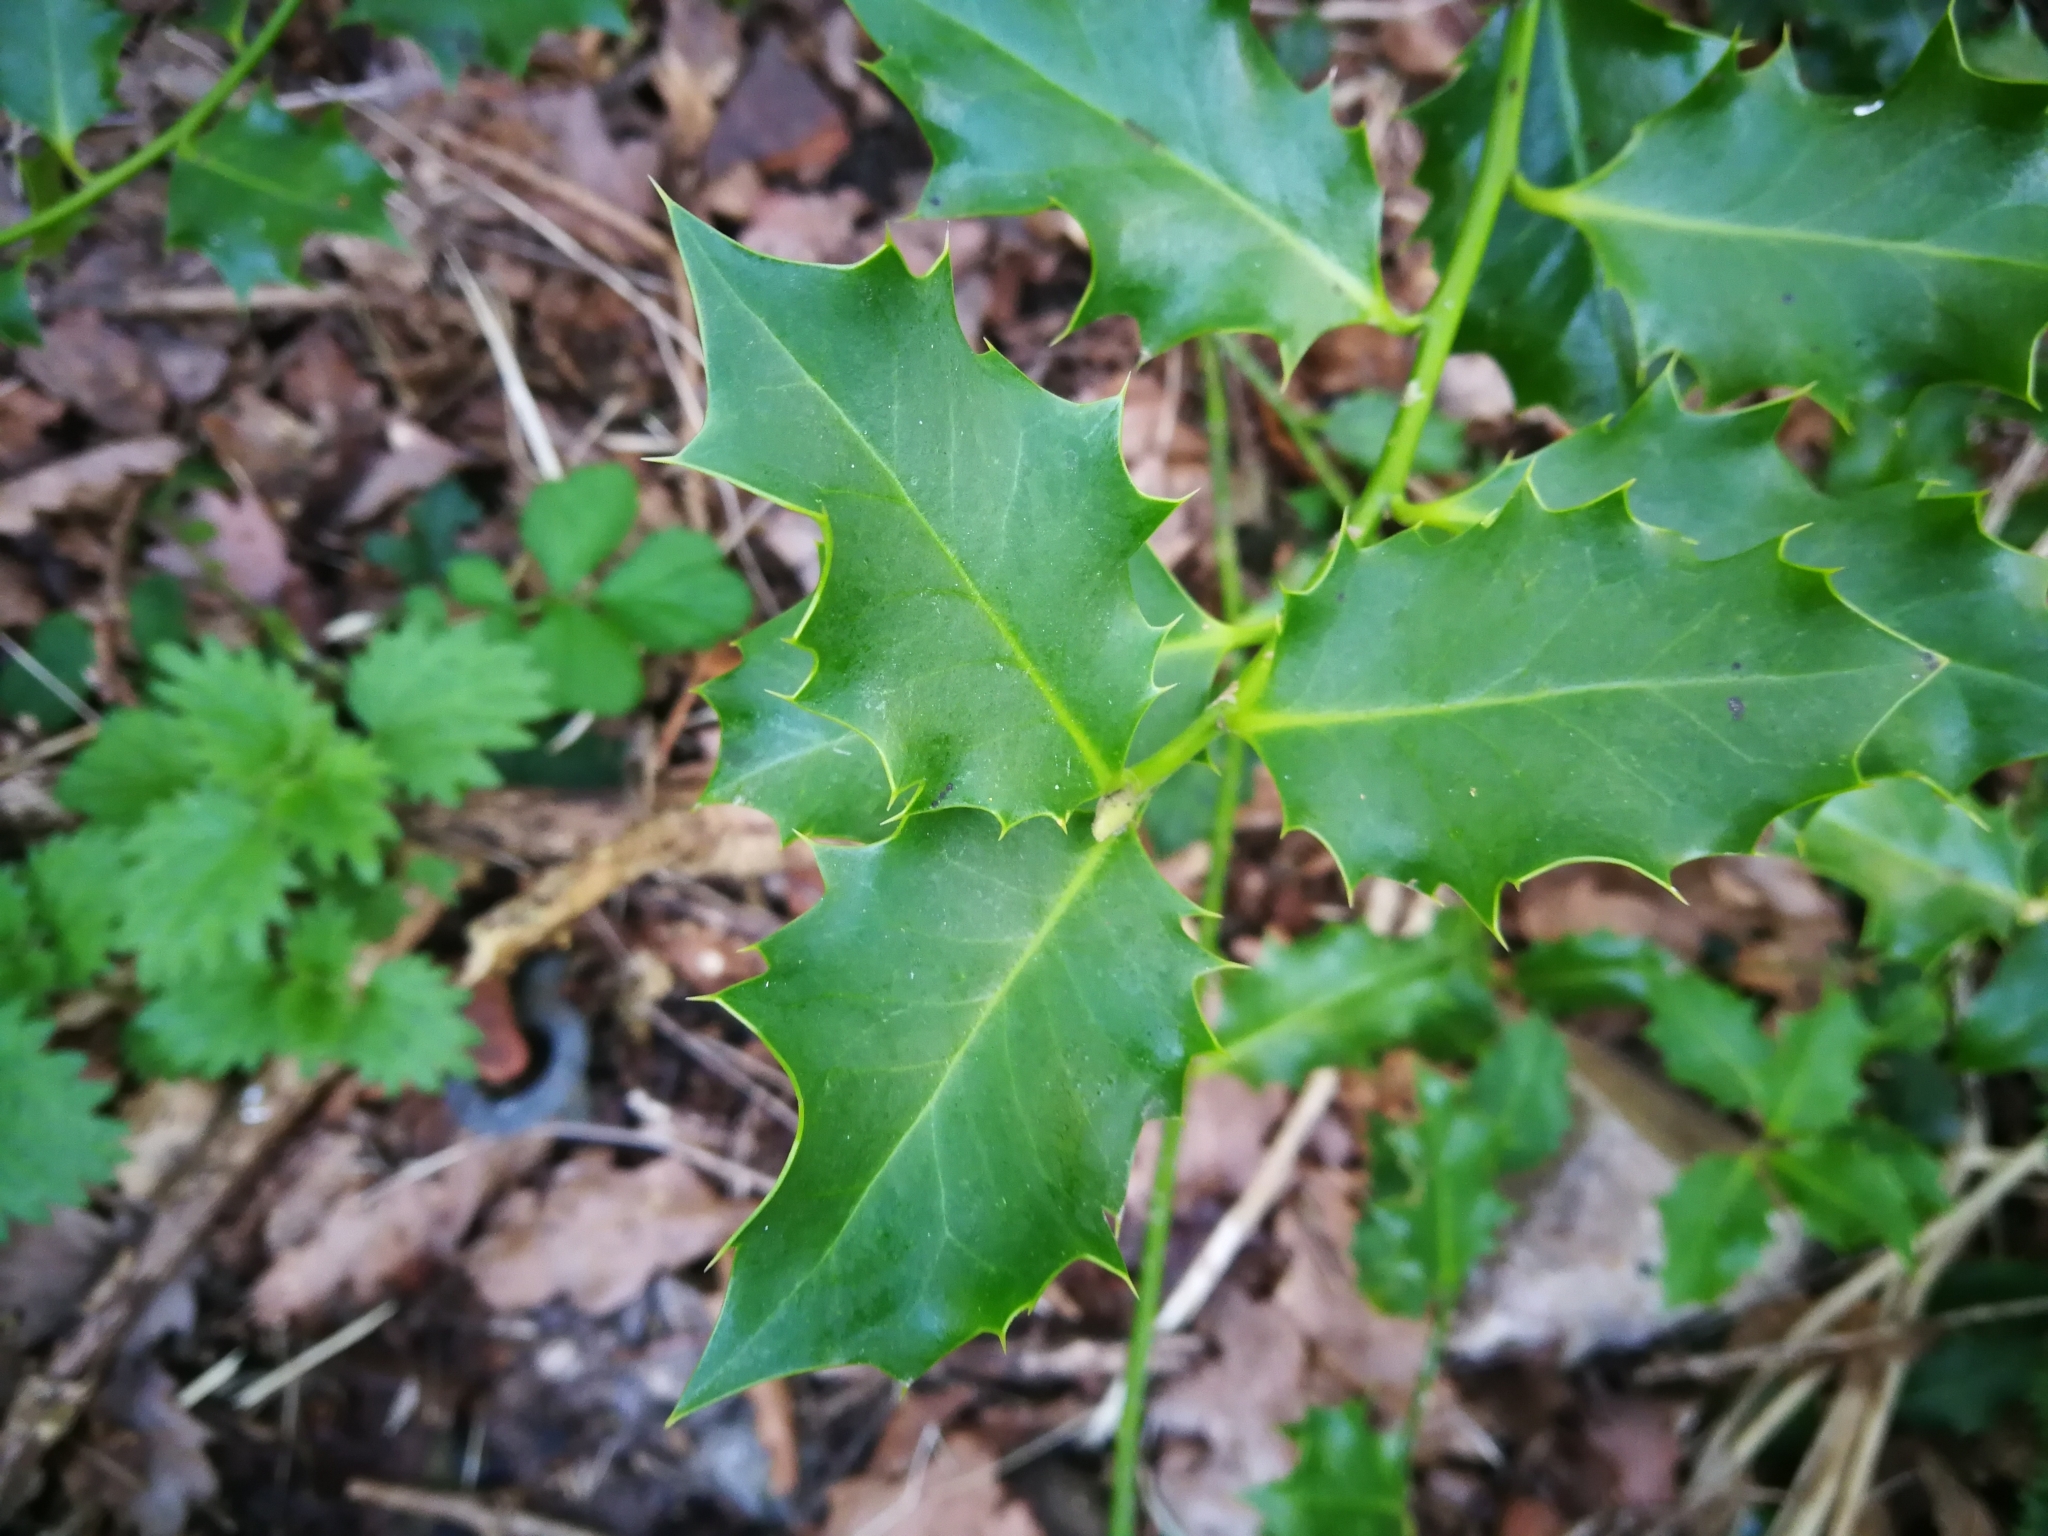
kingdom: Plantae
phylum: Tracheophyta
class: Magnoliopsida
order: Aquifoliales
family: Aquifoliaceae
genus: Ilex
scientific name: Ilex aquifolium
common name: English holly
